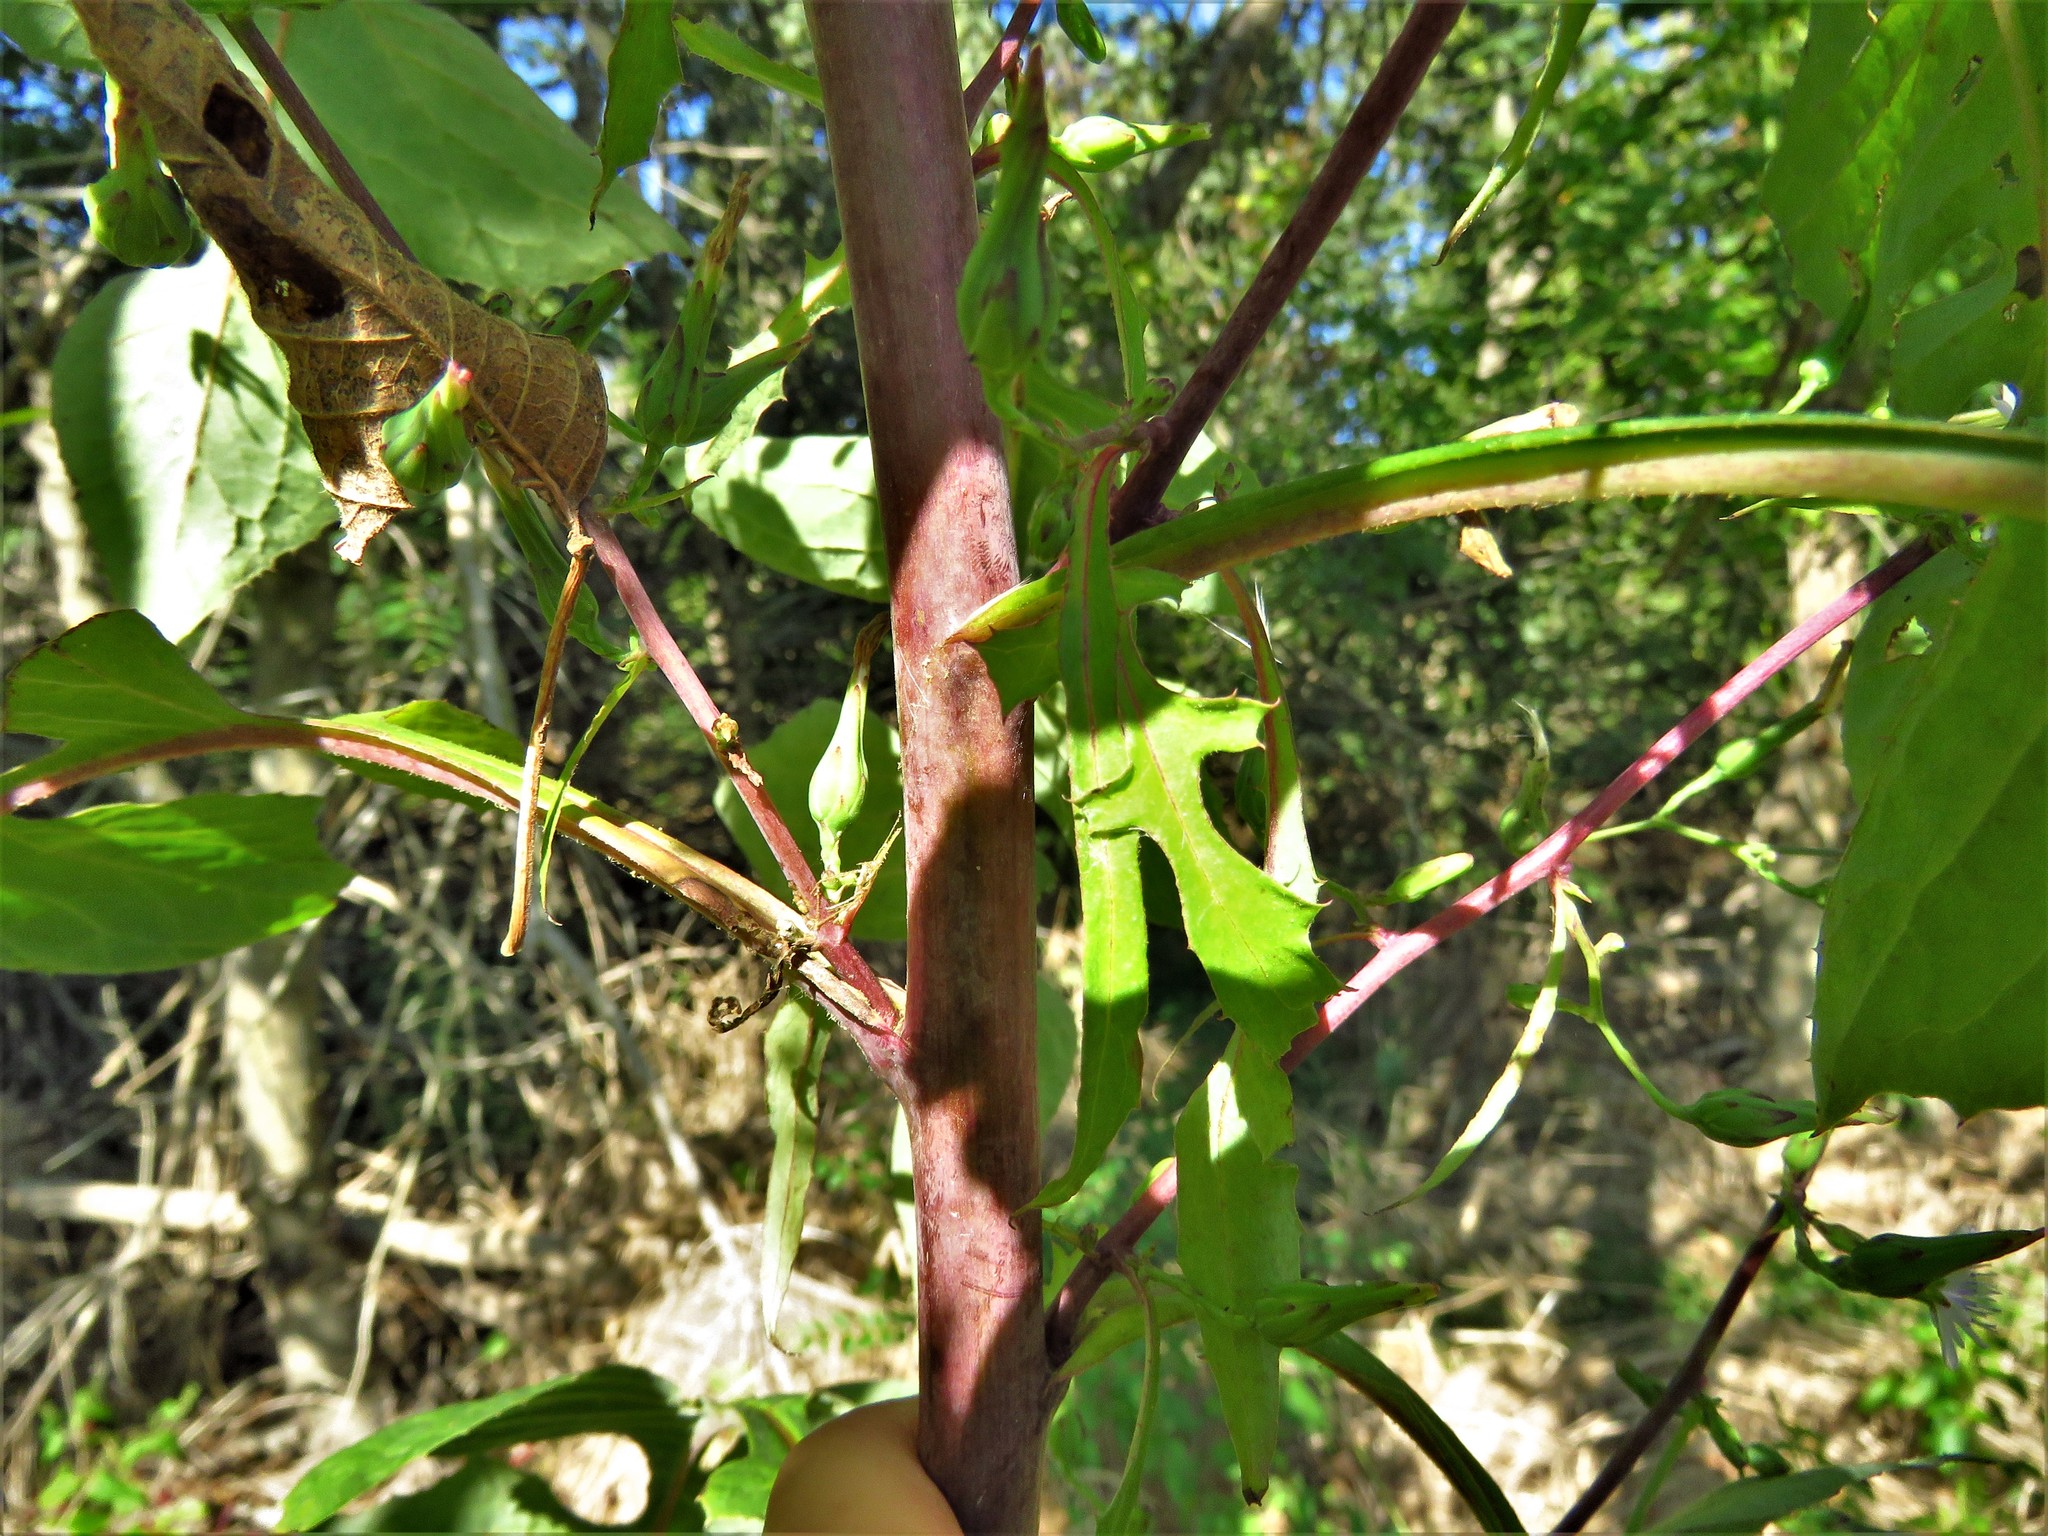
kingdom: Plantae
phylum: Tracheophyta
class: Magnoliopsida
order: Asterales
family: Asteraceae
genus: Lactuca
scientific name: Lactuca floridana
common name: Woodland lettuce
